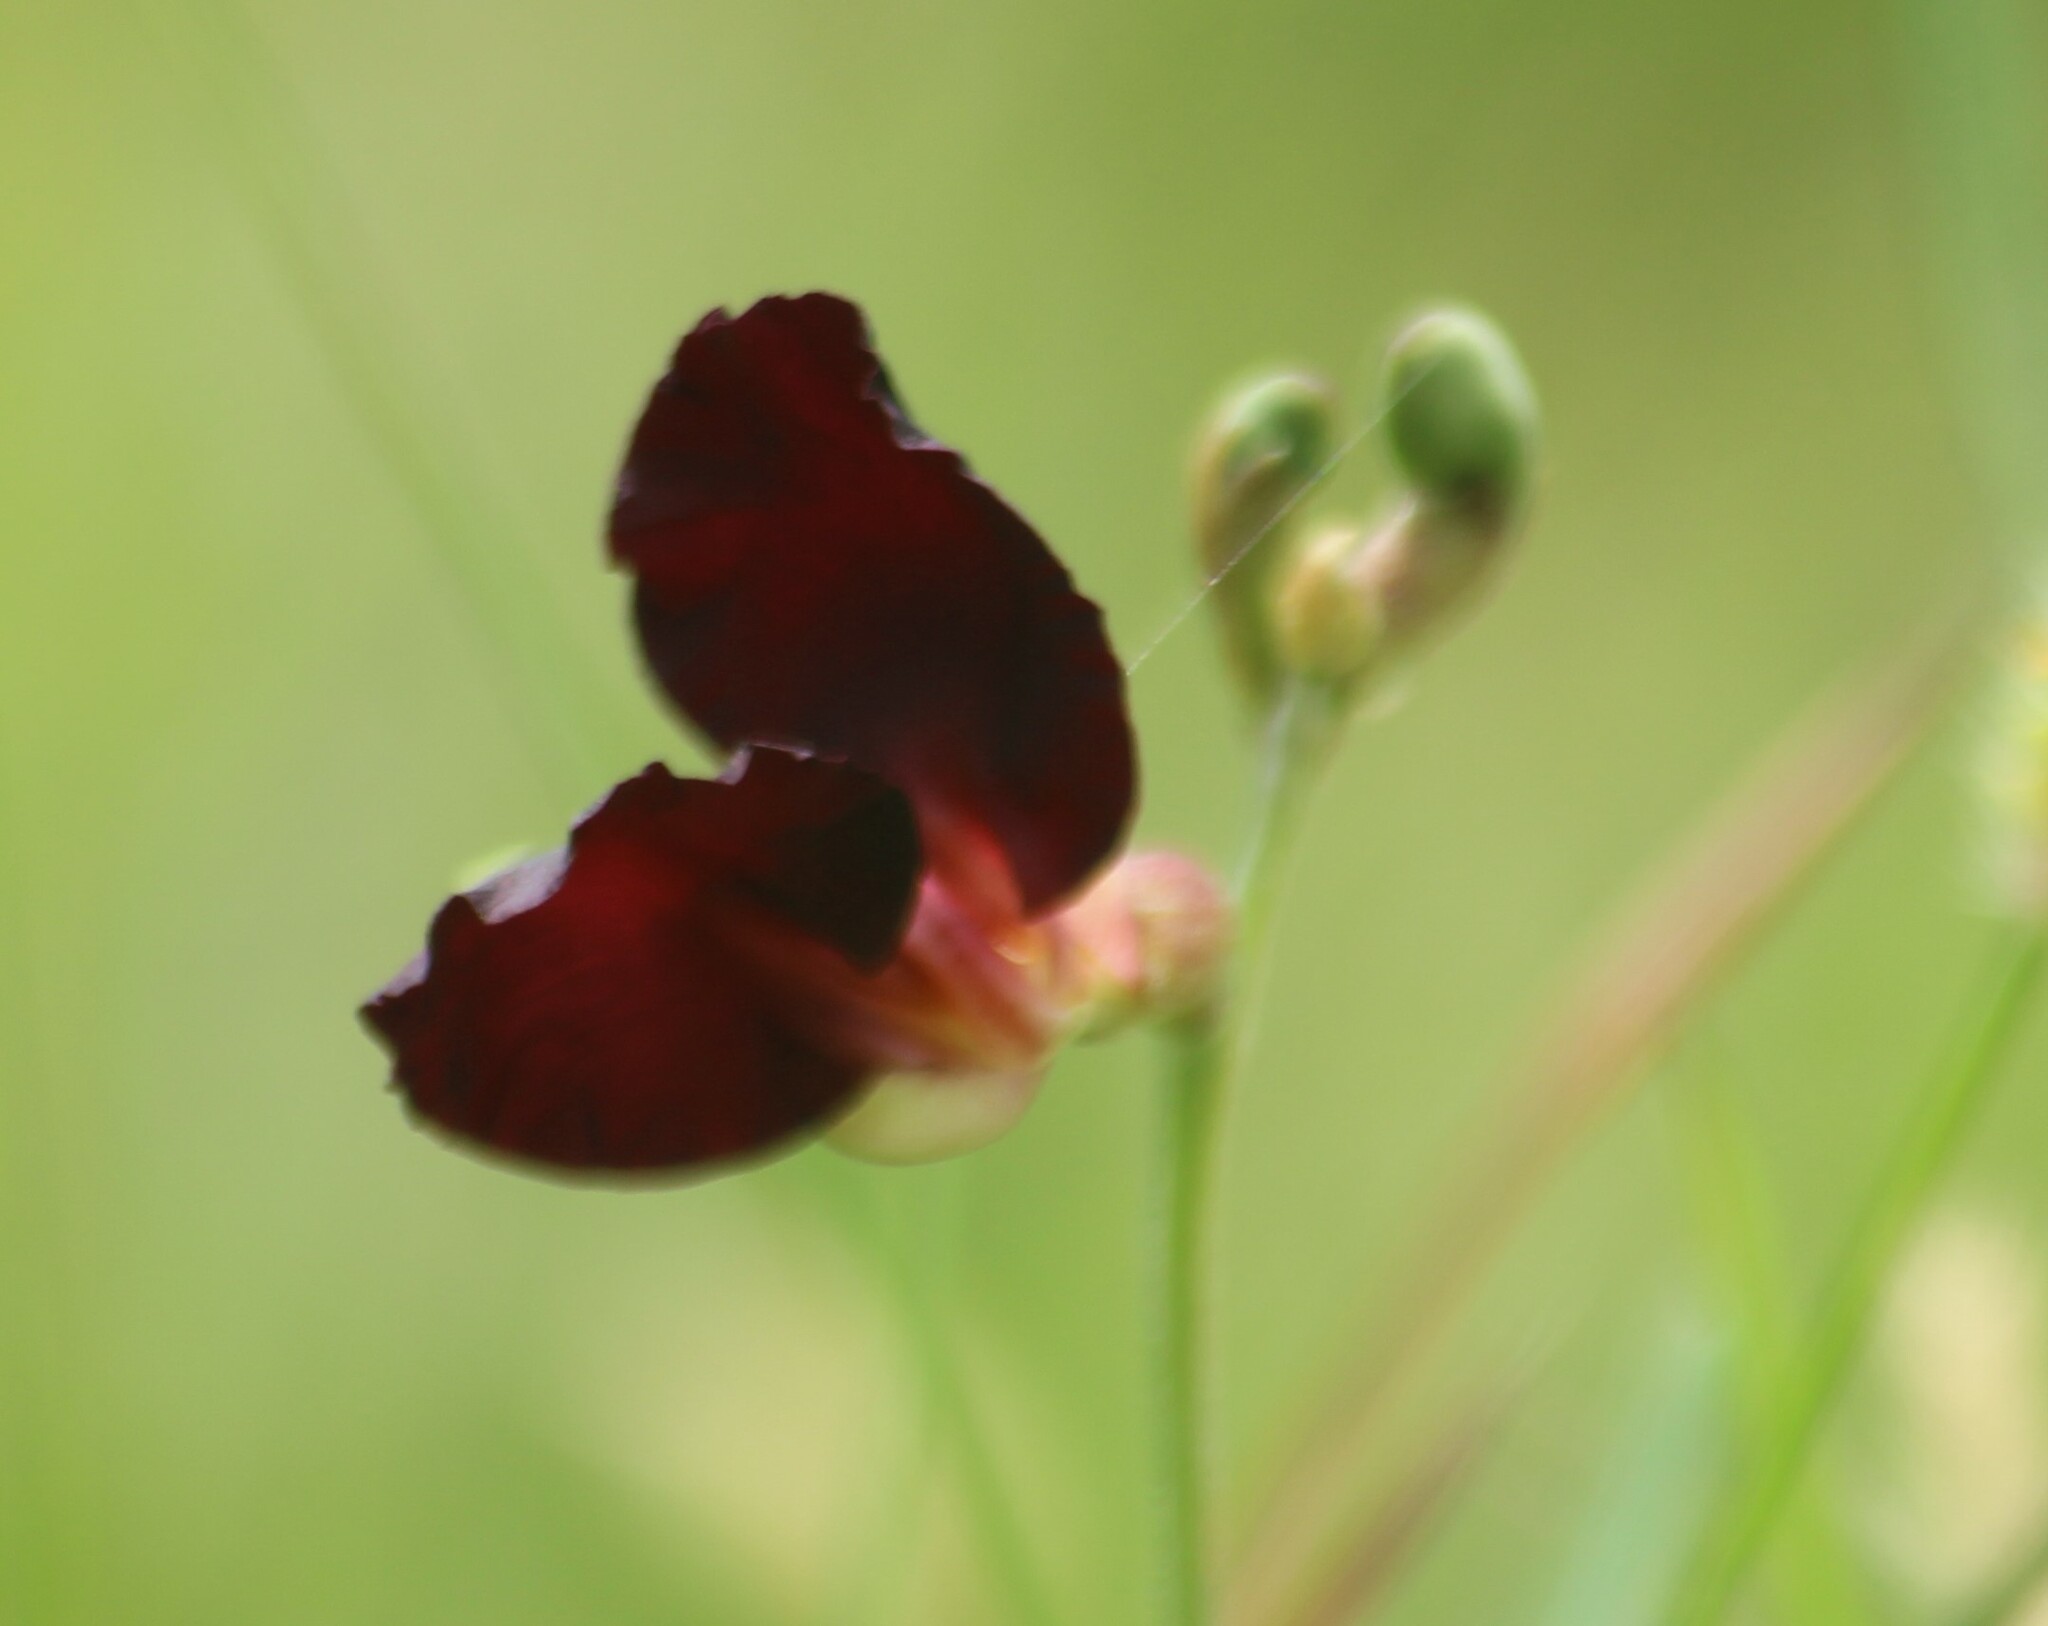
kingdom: Plantae
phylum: Tracheophyta
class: Magnoliopsida
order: Fabales
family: Fabaceae
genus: Macroptilium
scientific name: Macroptilium atropurpureum
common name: Purple bushbean
